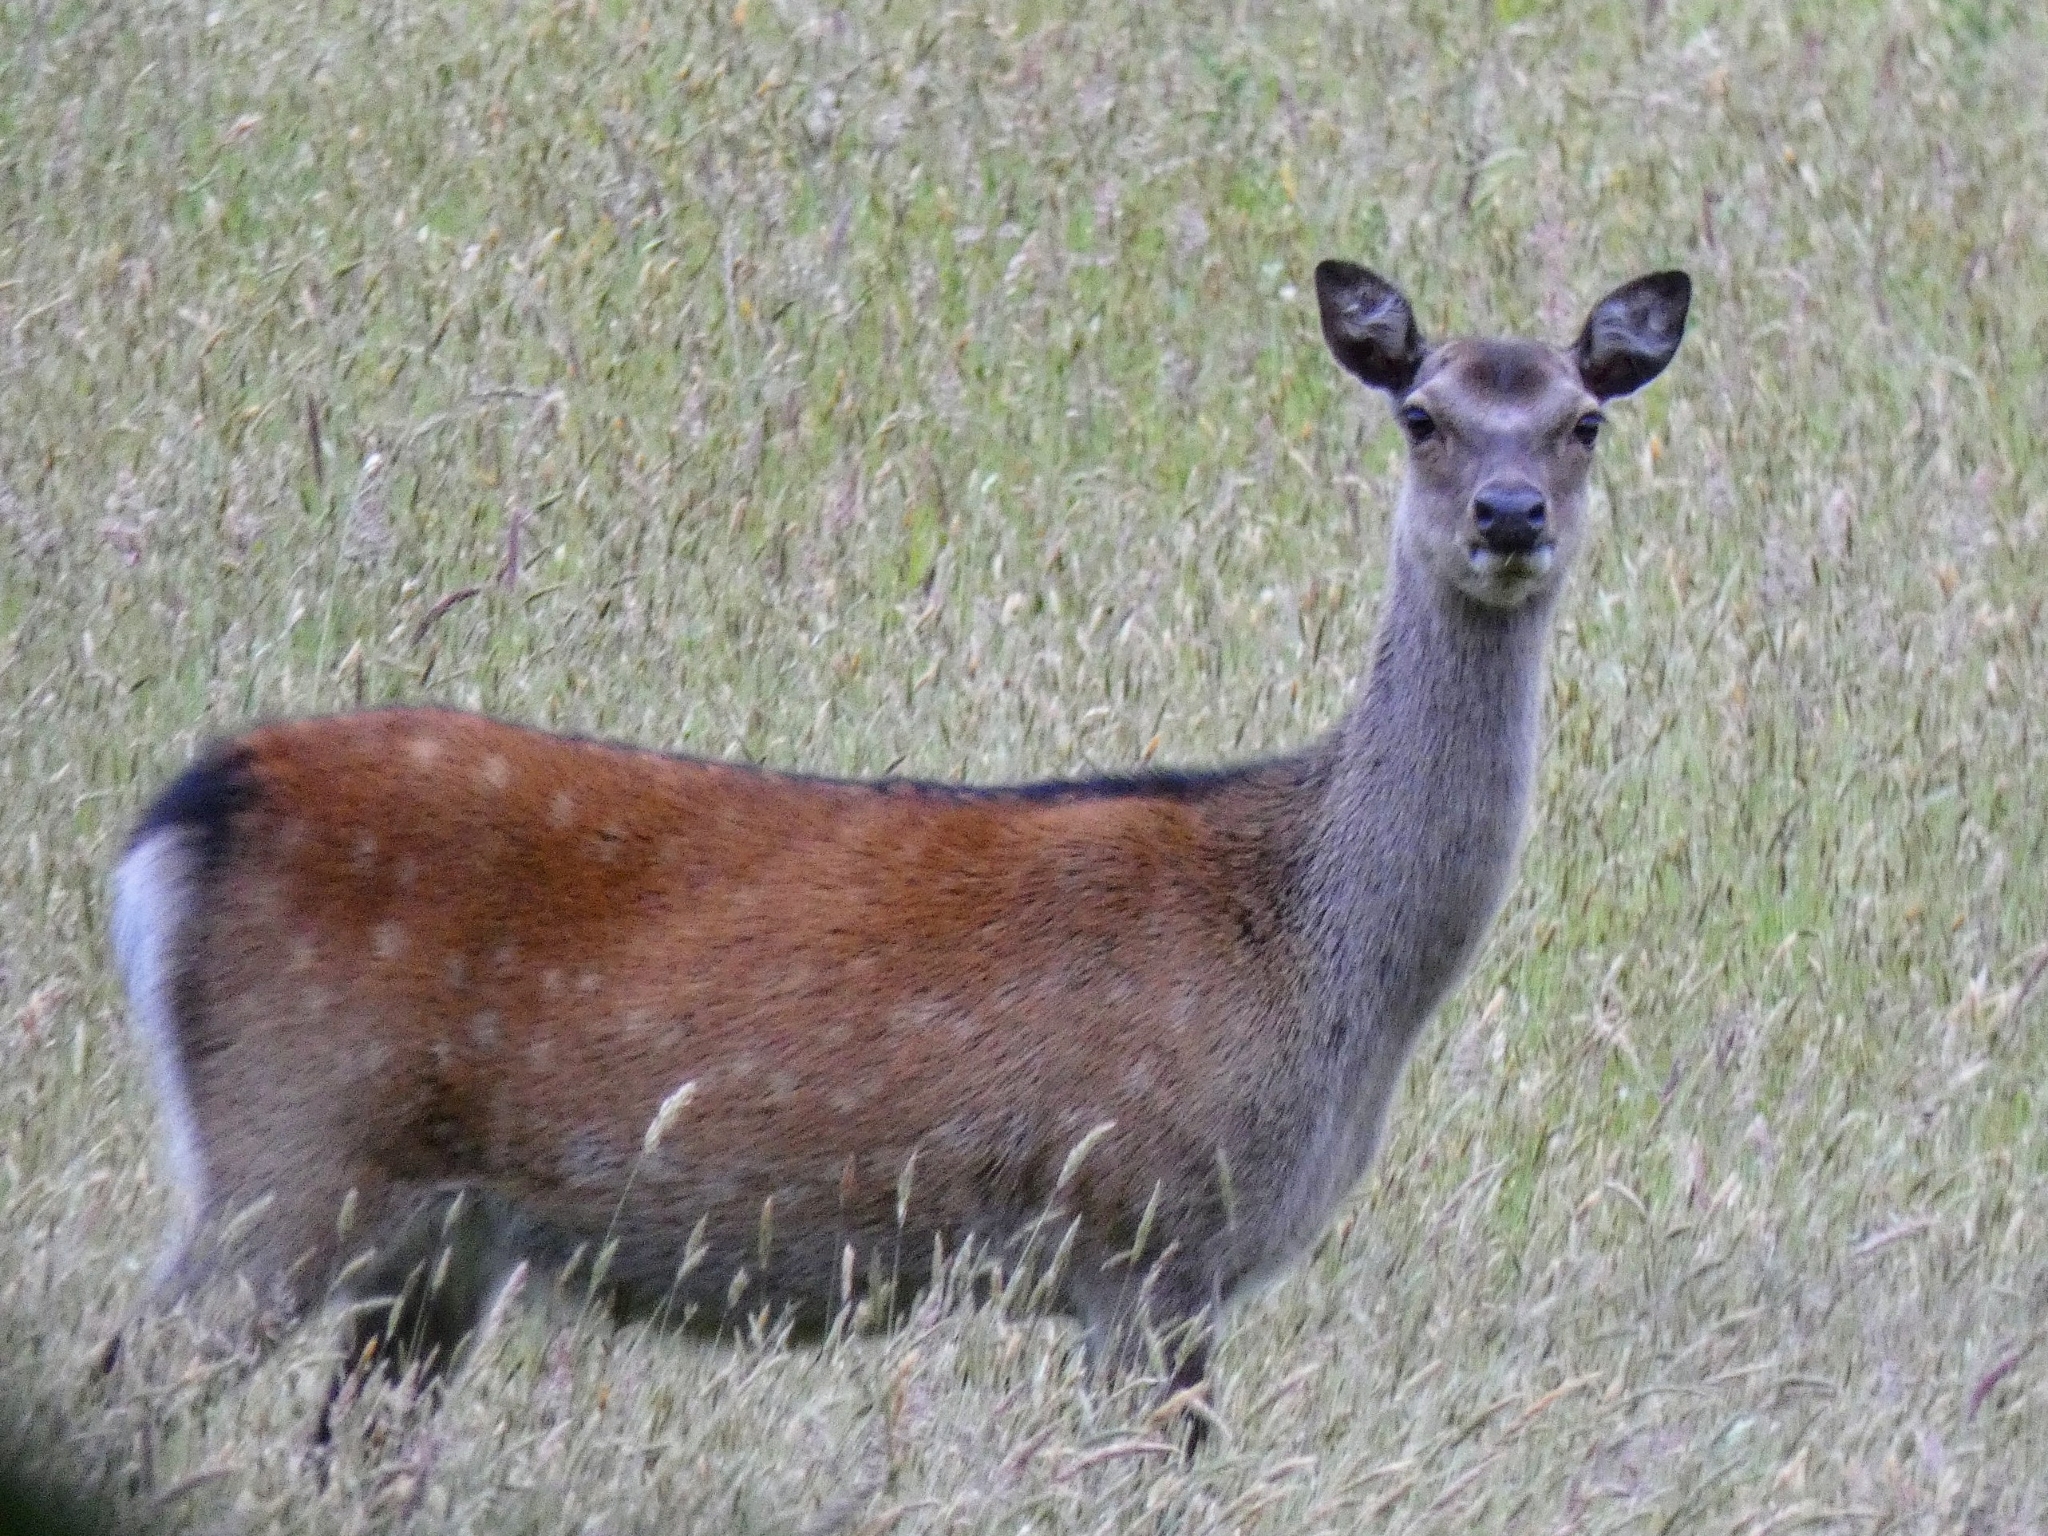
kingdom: Animalia
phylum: Chordata
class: Mammalia
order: Artiodactyla
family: Cervidae
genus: Cervus
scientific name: Cervus nippon
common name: Sika deer
